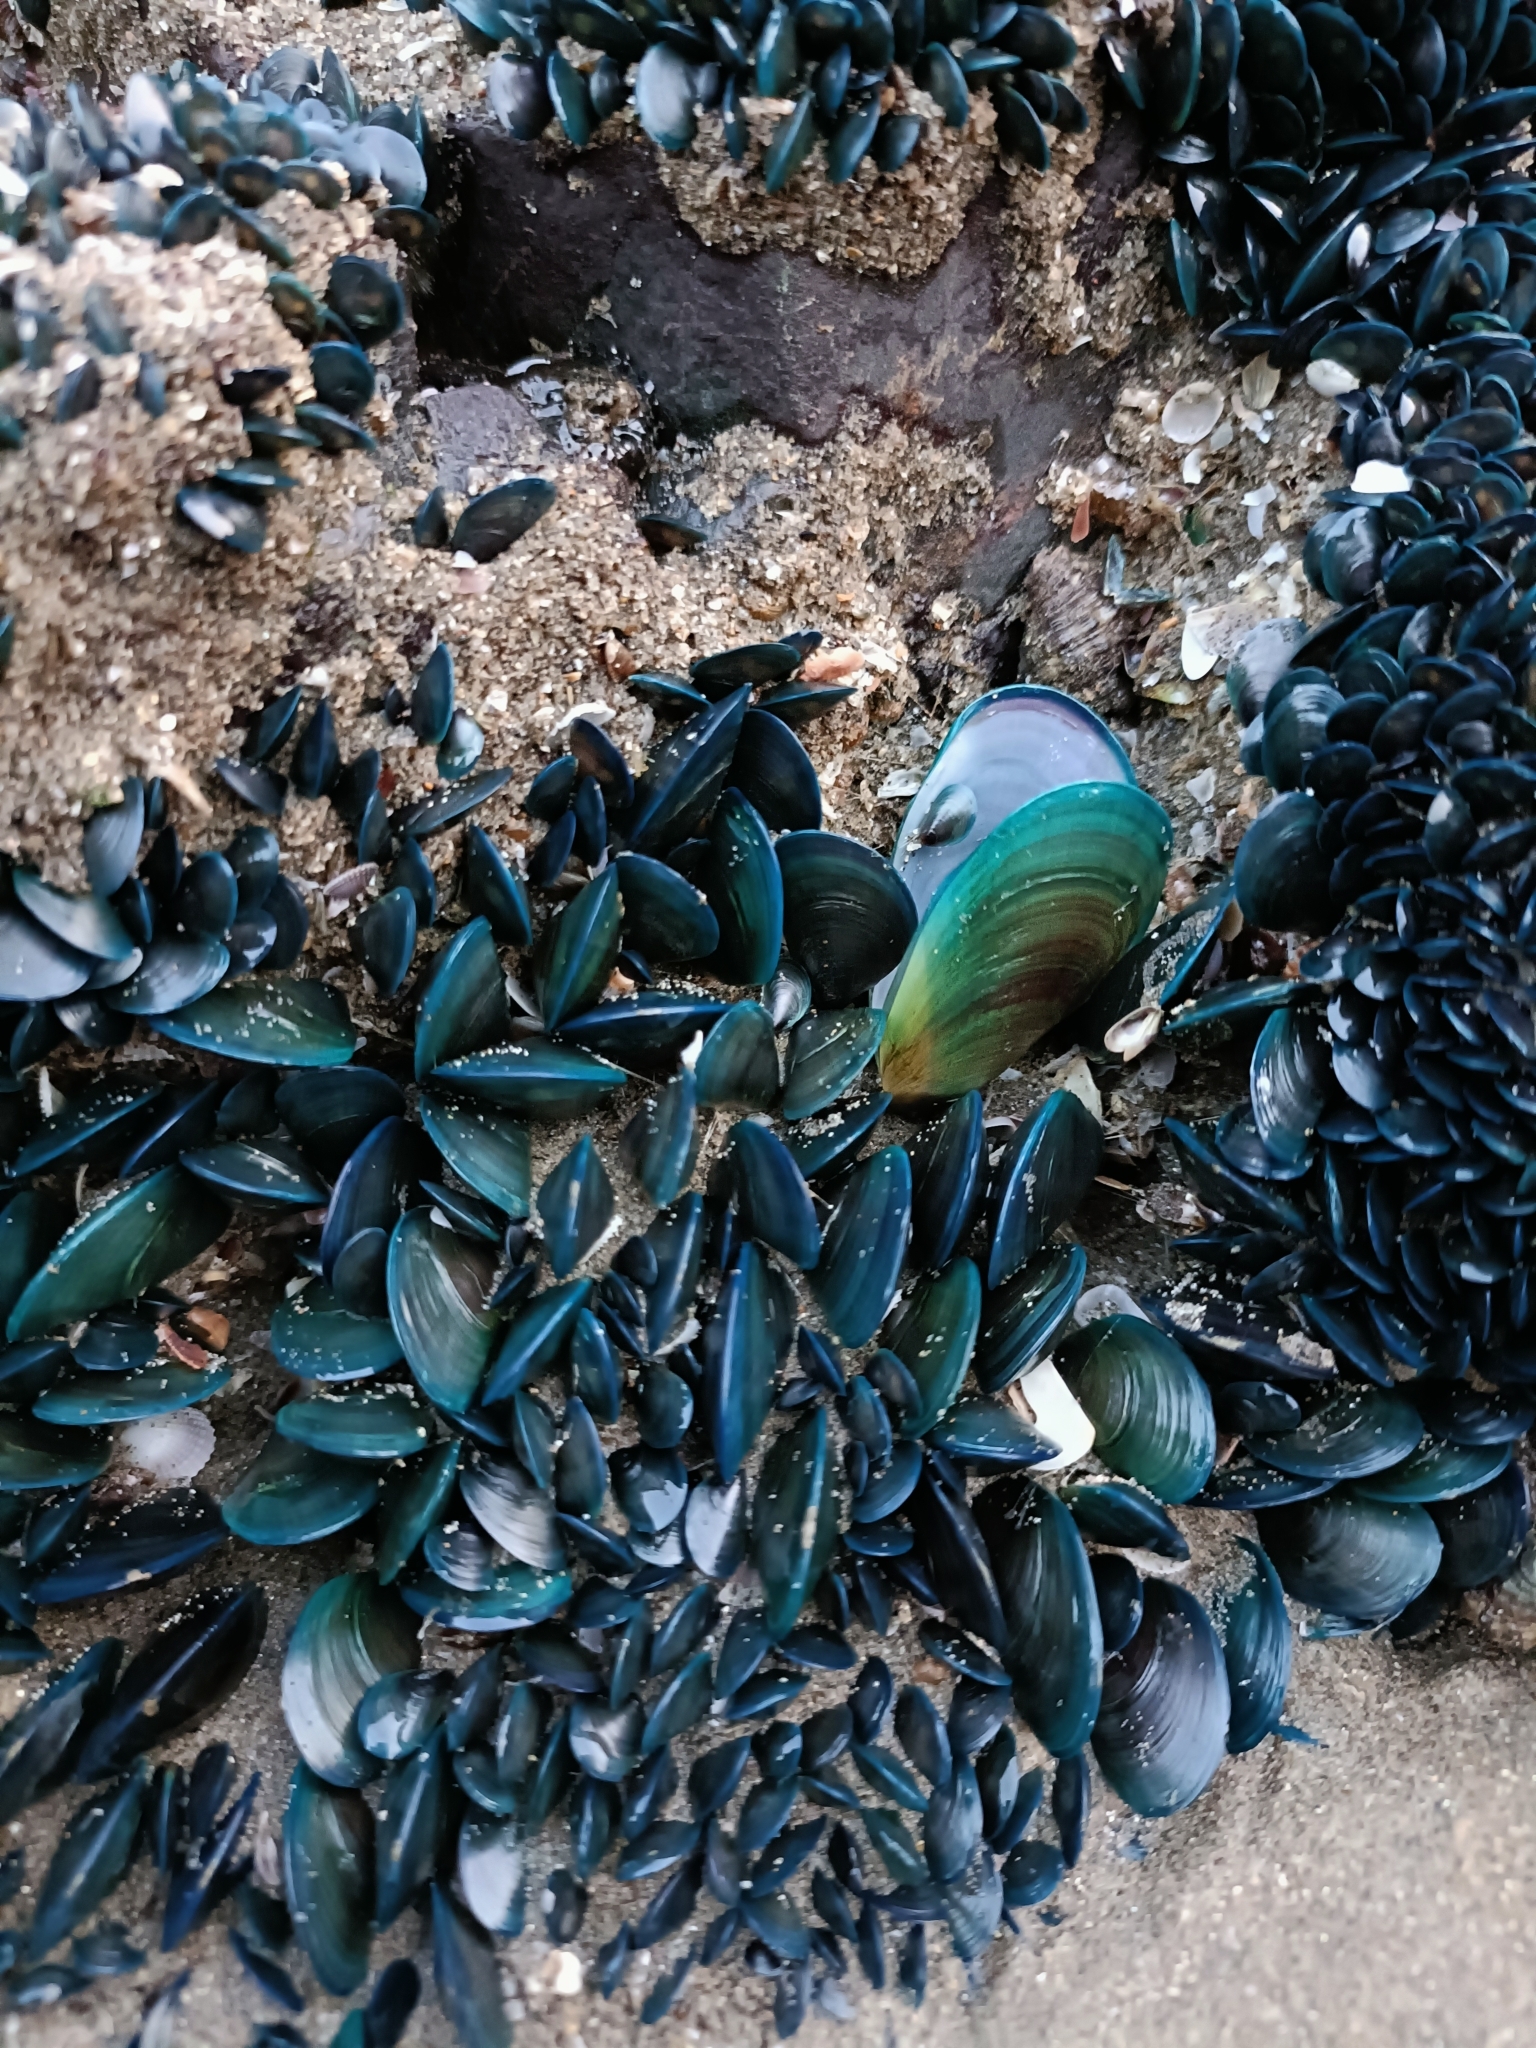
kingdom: Animalia
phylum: Mollusca
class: Bivalvia
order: Mytilida
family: Mytilidae
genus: Perna
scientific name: Perna viridis
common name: Green mussel
